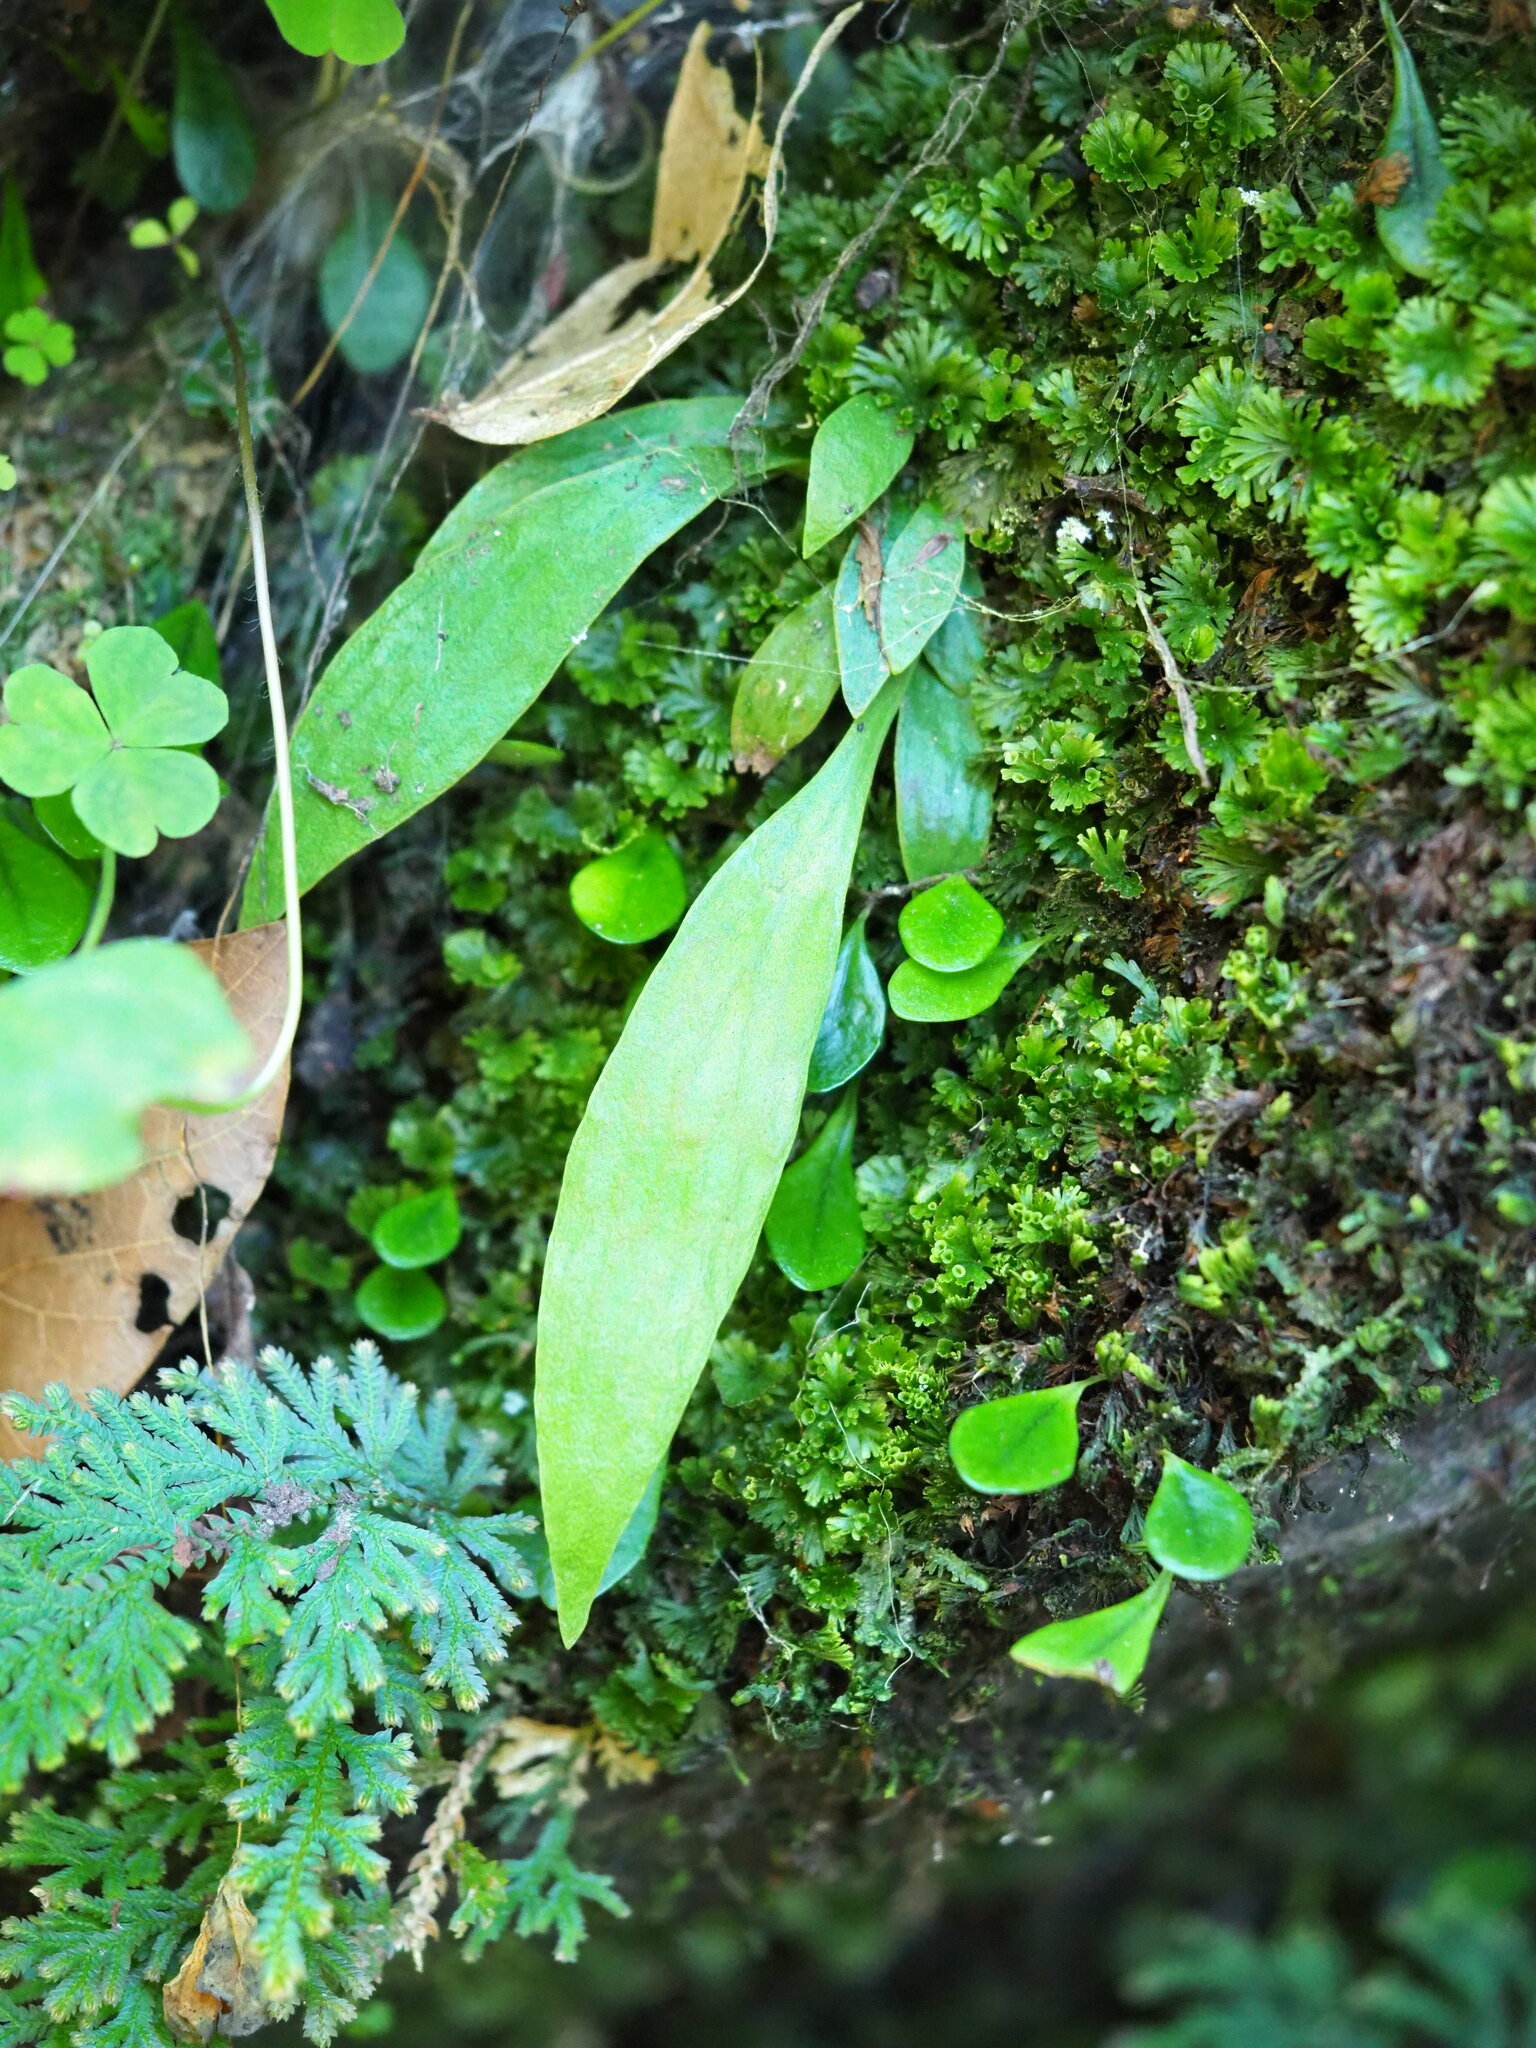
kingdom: Plantae
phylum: Tracheophyta
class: Polypodiopsida
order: Polypodiales
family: Pteridaceae
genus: Antrophyum
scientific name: Antrophyum formosanum
